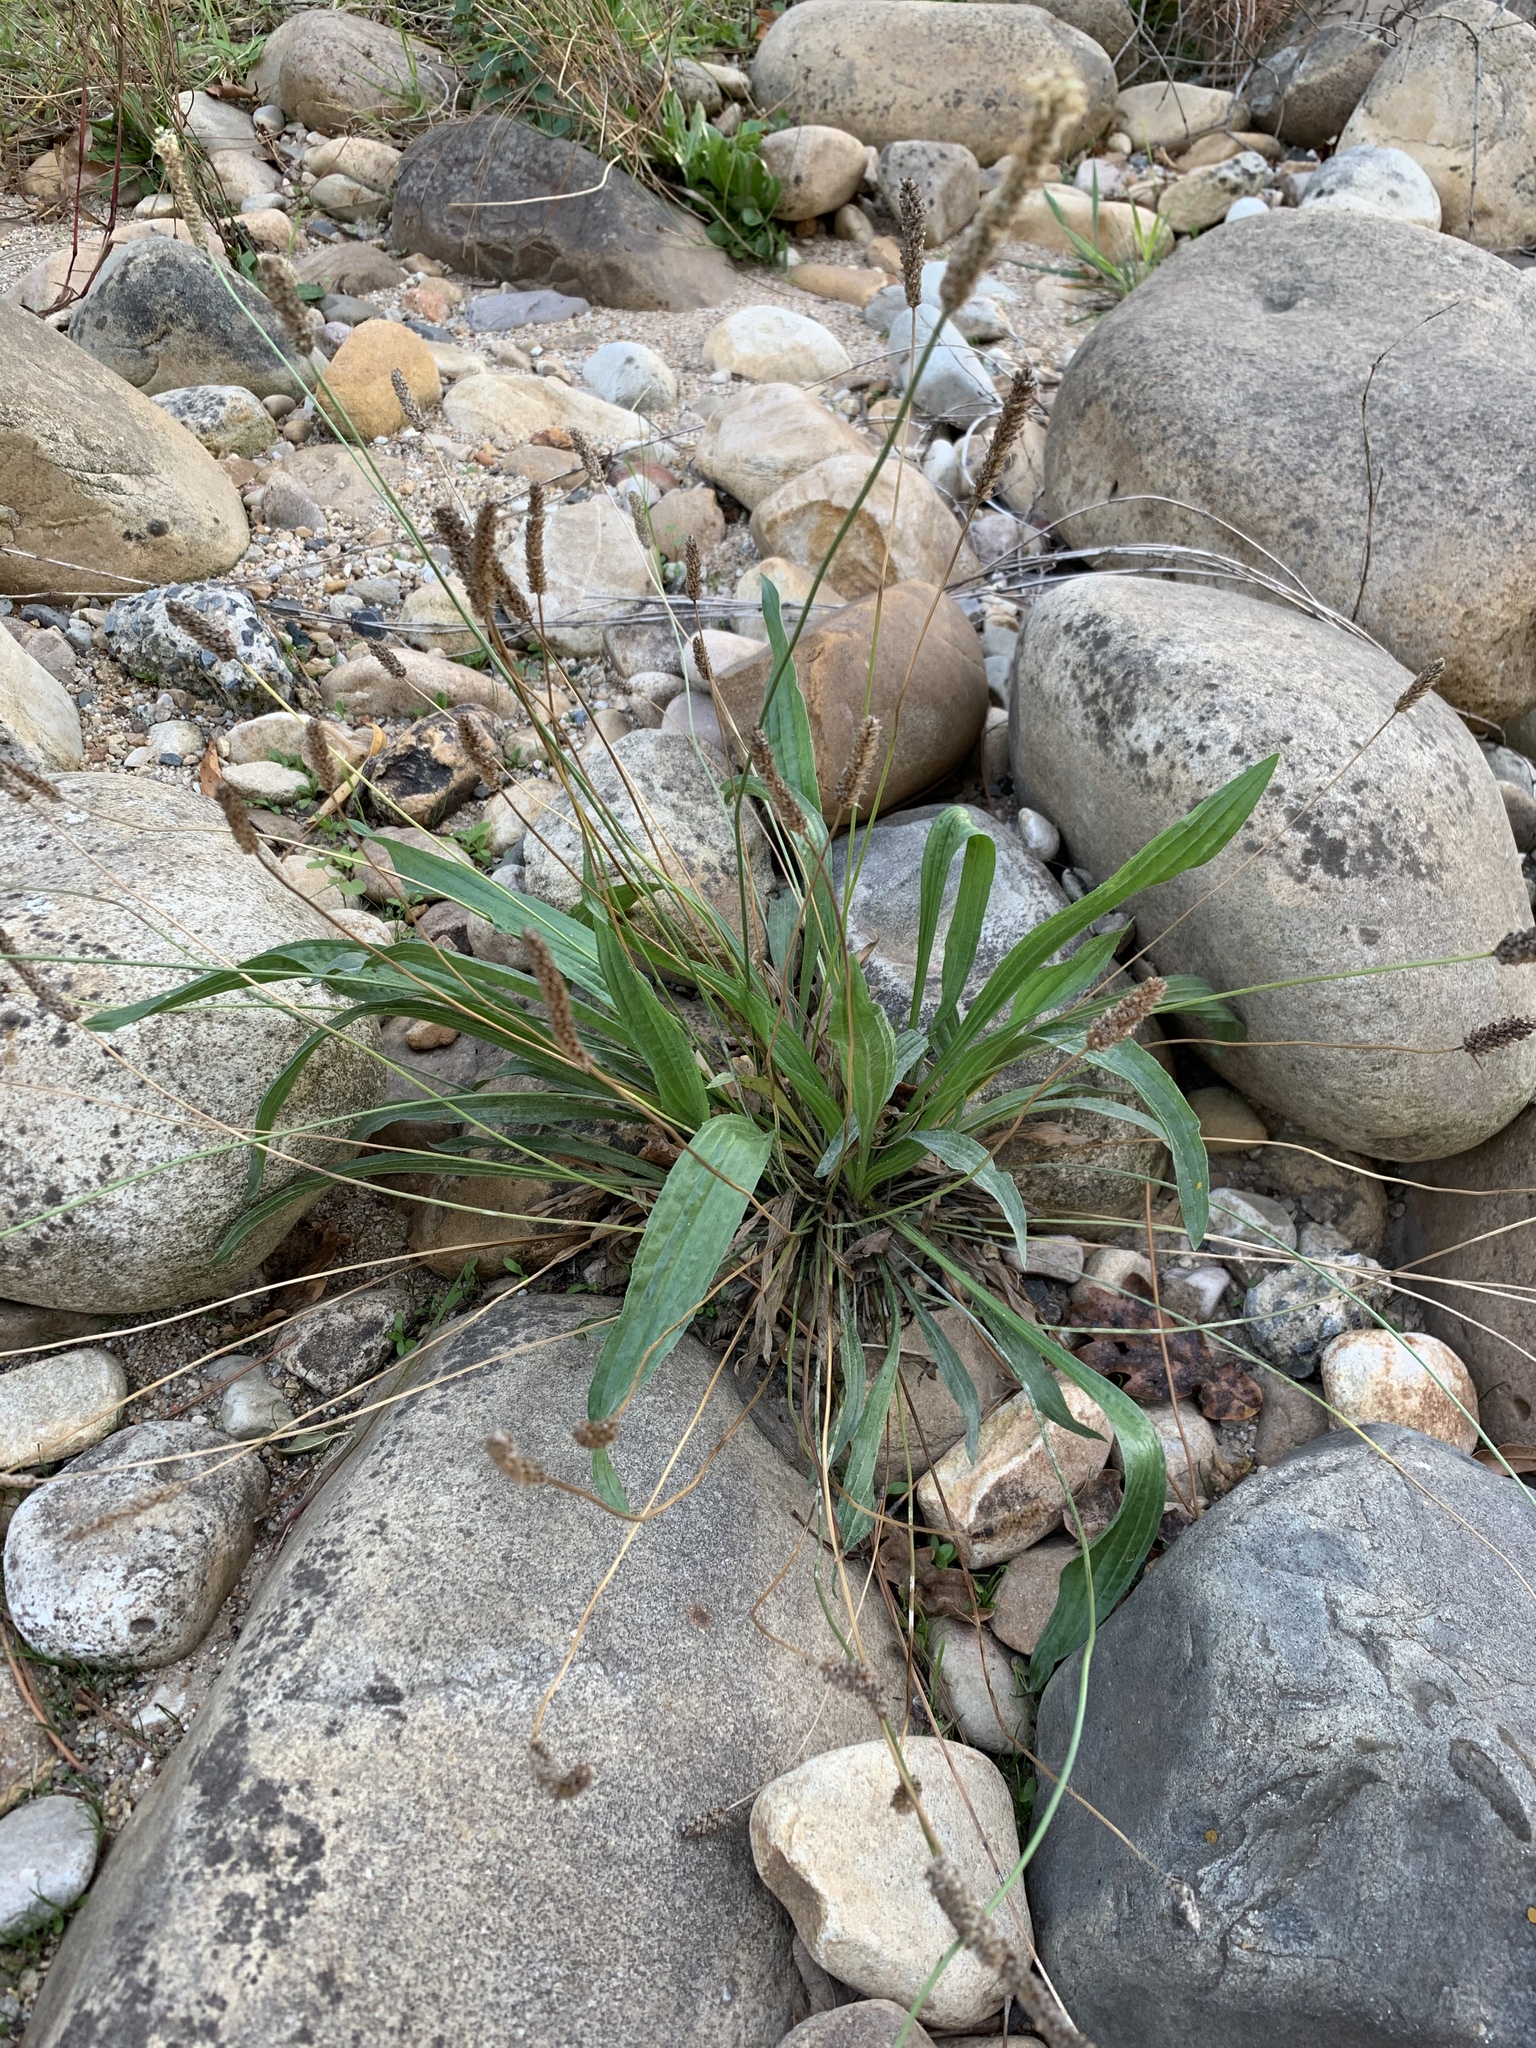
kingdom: Plantae
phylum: Tracheophyta
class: Magnoliopsida
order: Lamiales
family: Plantaginaceae
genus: Plantago
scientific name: Plantago lanceolata
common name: Ribwort plantain
